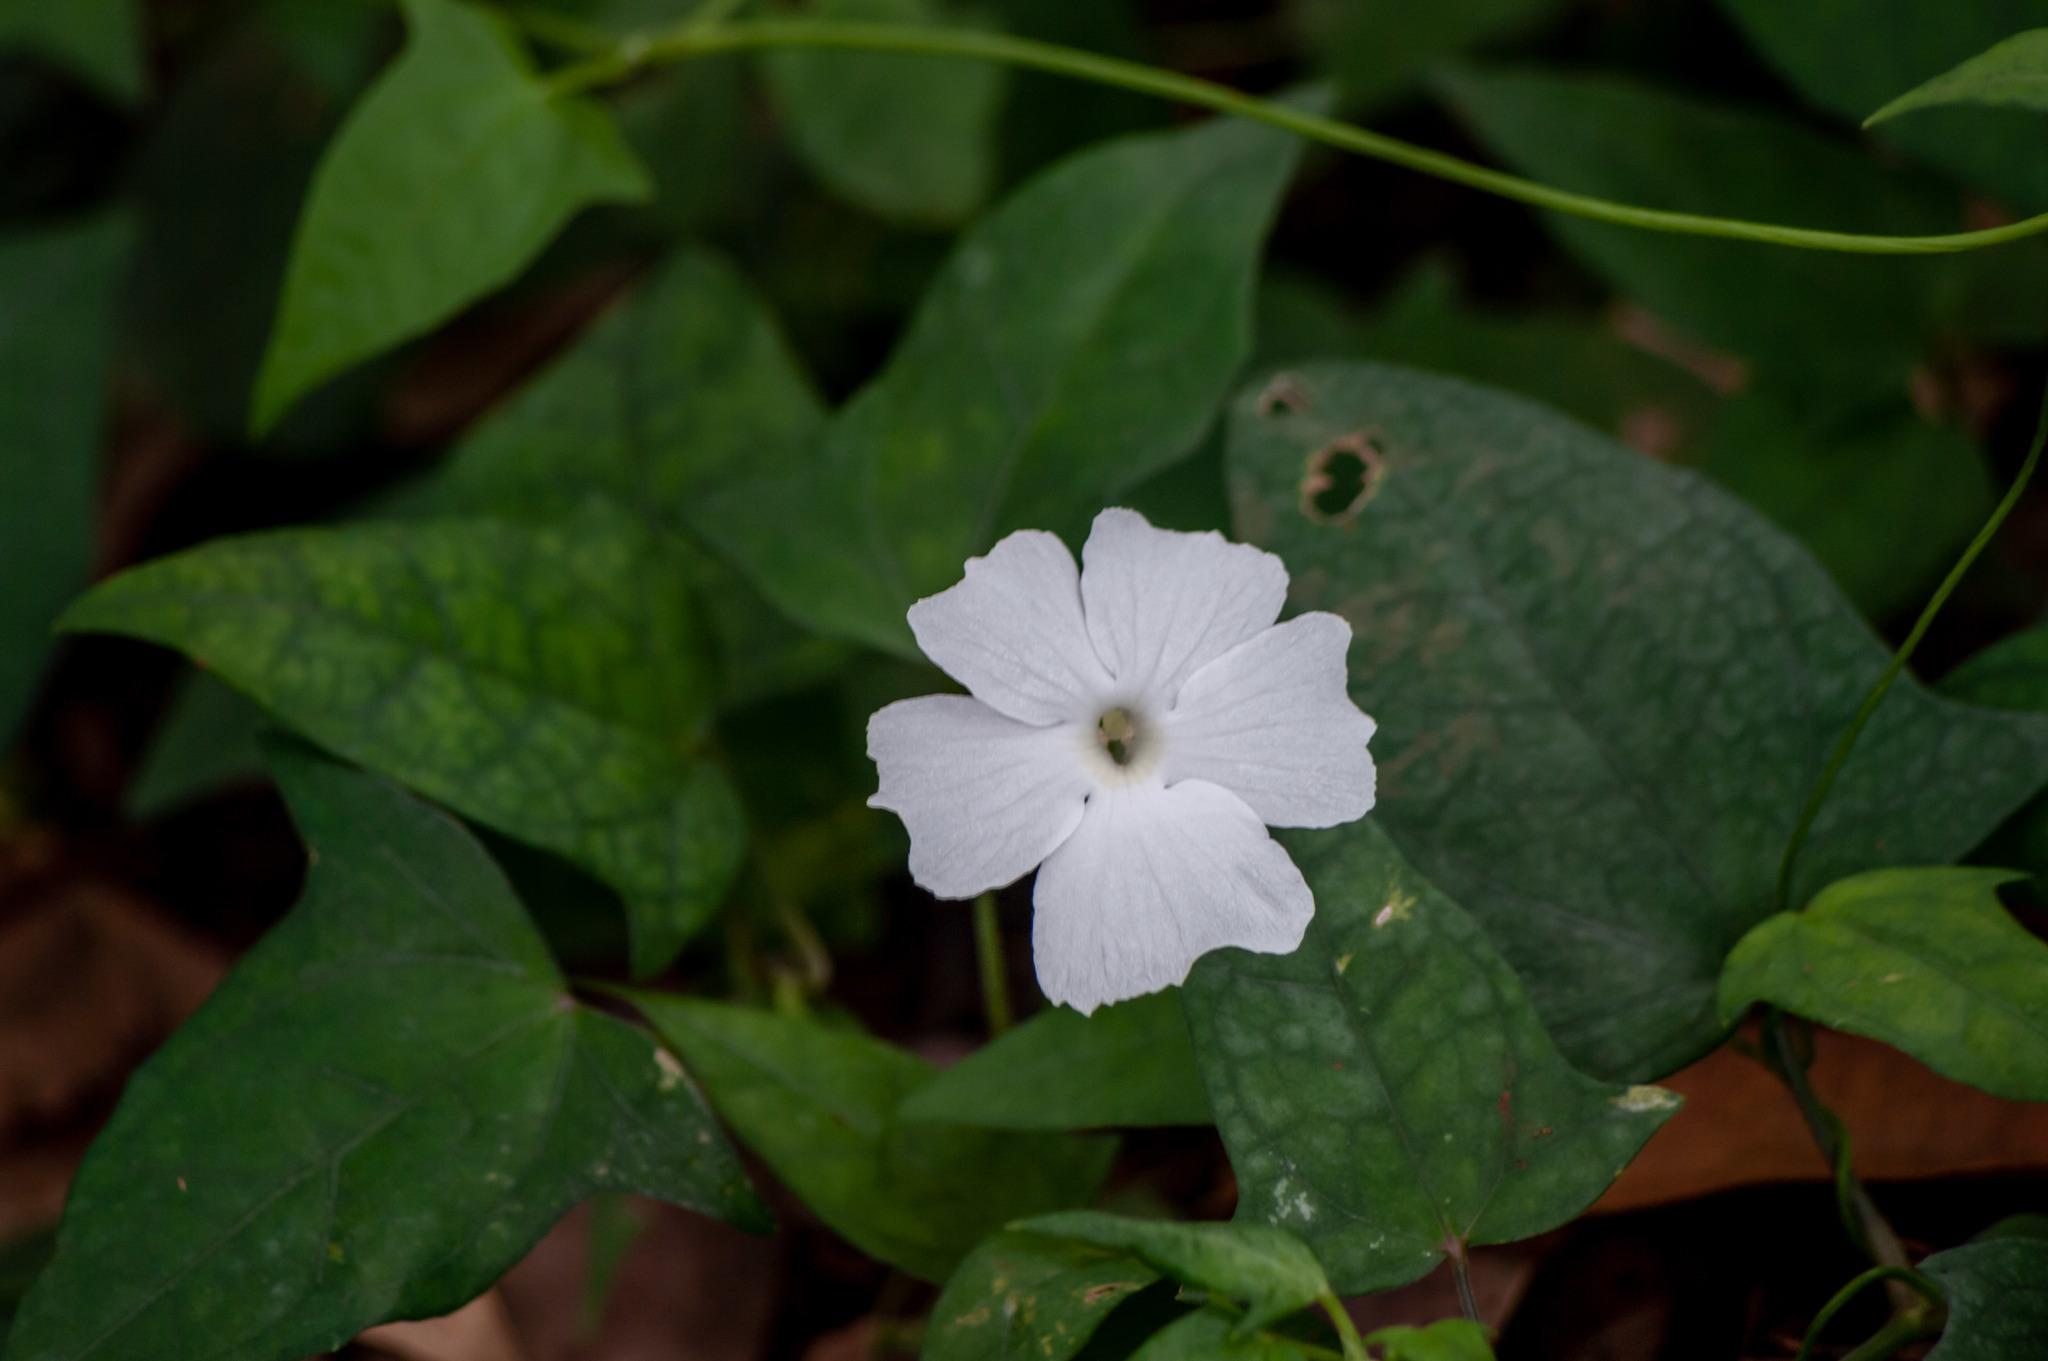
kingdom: Plantae
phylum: Tracheophyta
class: Magnoliopsida
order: Lamiales
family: Acanthaceae
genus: Thunbergia
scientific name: Thunbergia fragrans
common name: Whitelady
